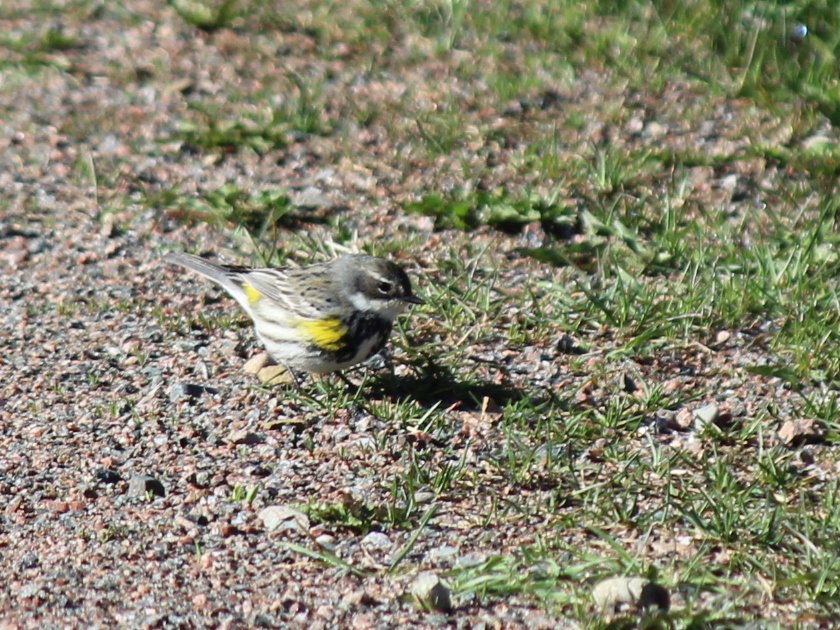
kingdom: Animalia
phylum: Chordata
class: Aves
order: Passeriformes
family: Parulidae
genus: Setophaga
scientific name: Setophaga coronata
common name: Myrtle warbler
